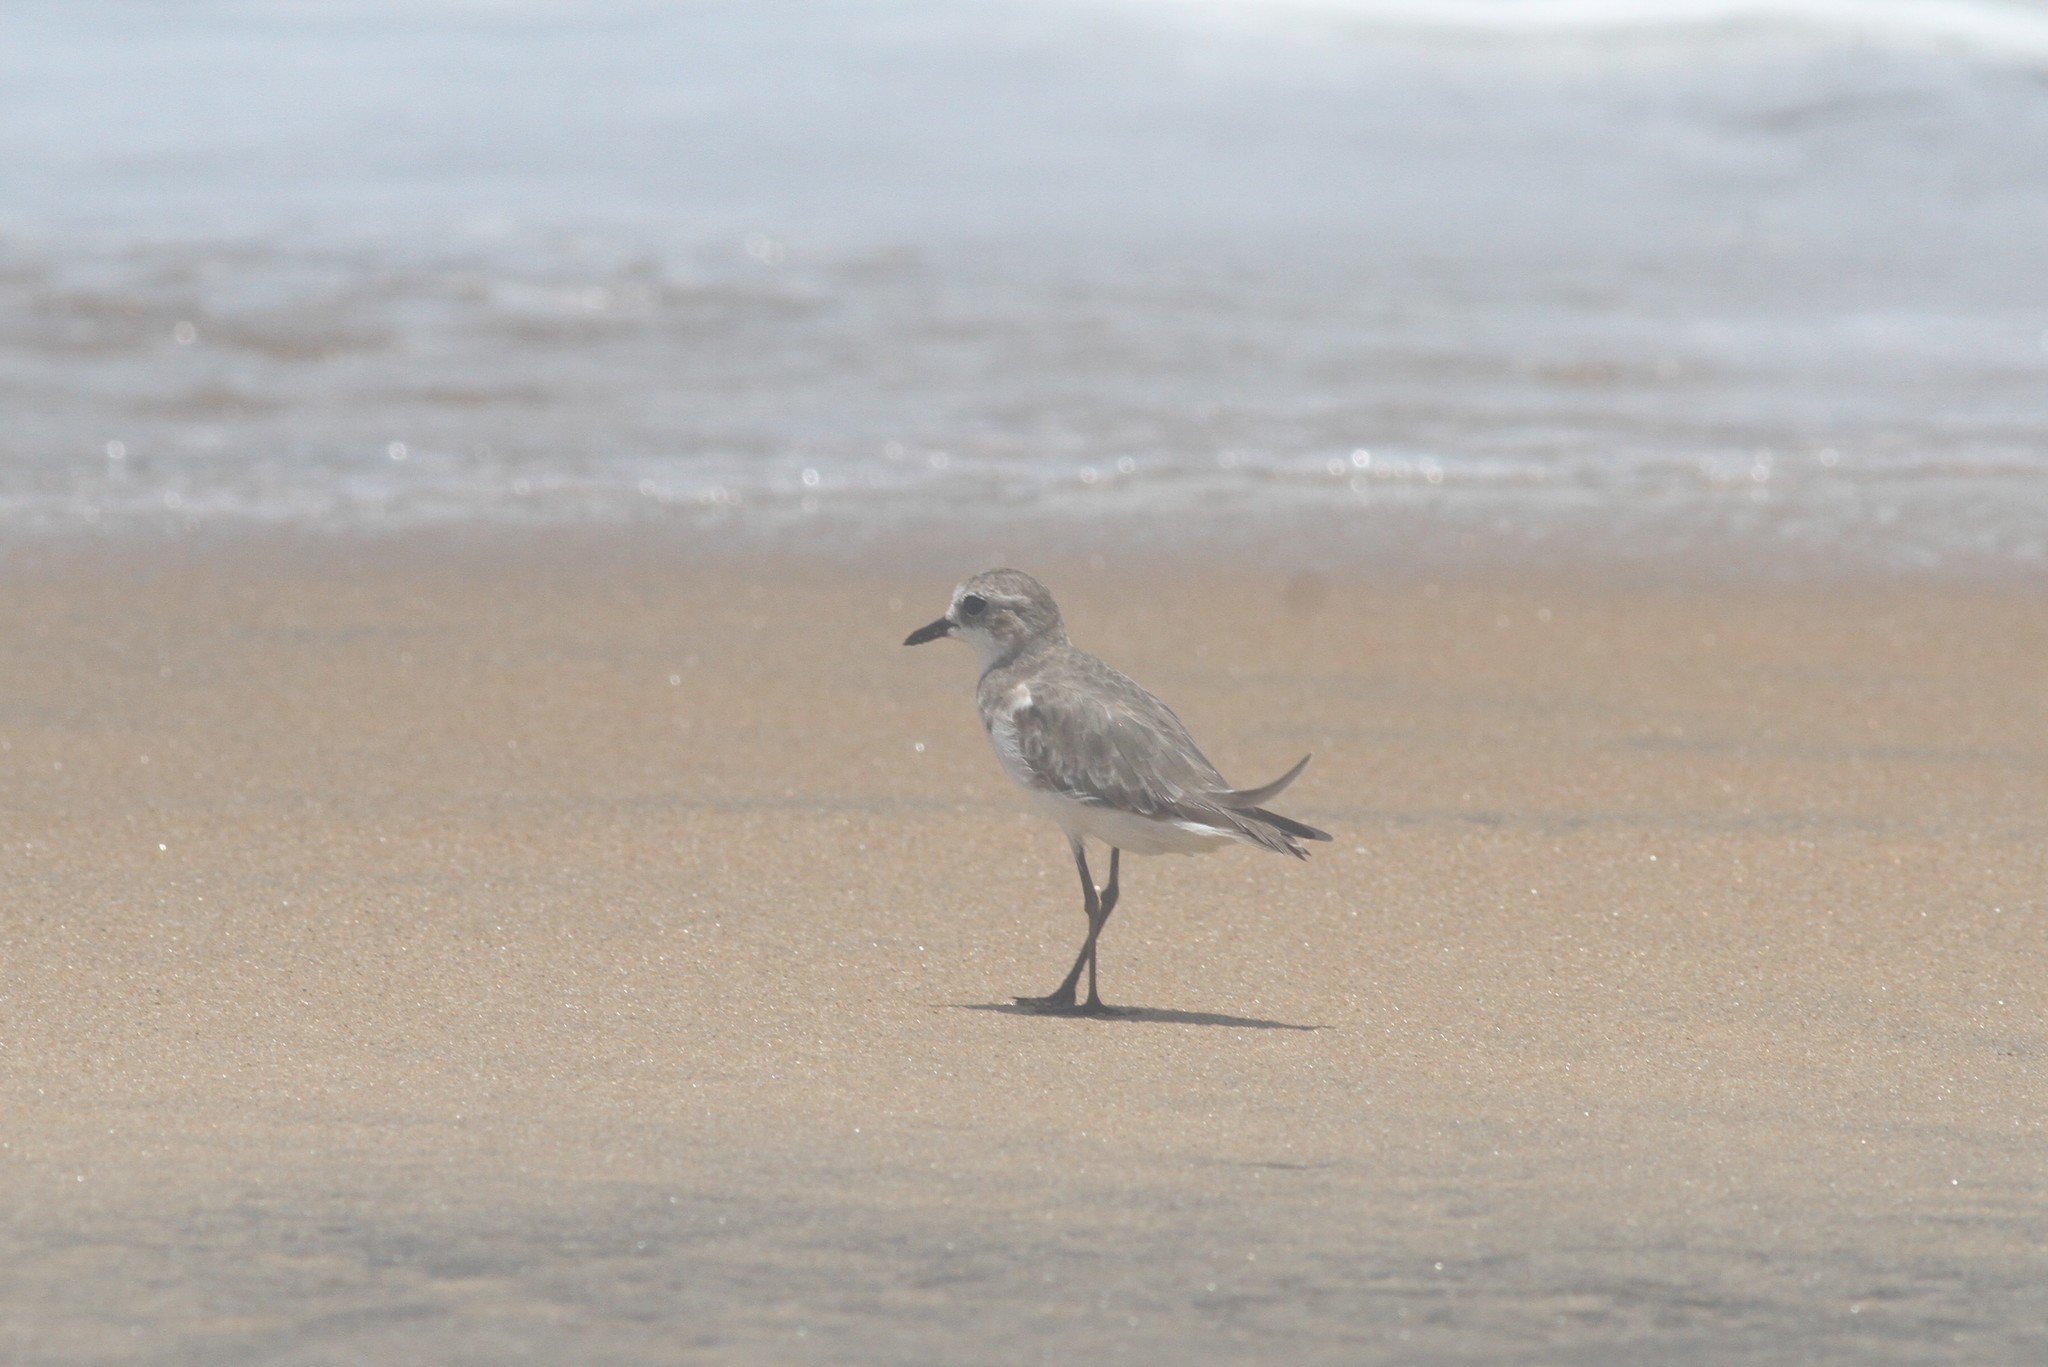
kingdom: Animalia
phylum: Chordata
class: Aves
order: Charadriiformes
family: Charadriidae
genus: Anarhynchus
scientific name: Anarhynchus
